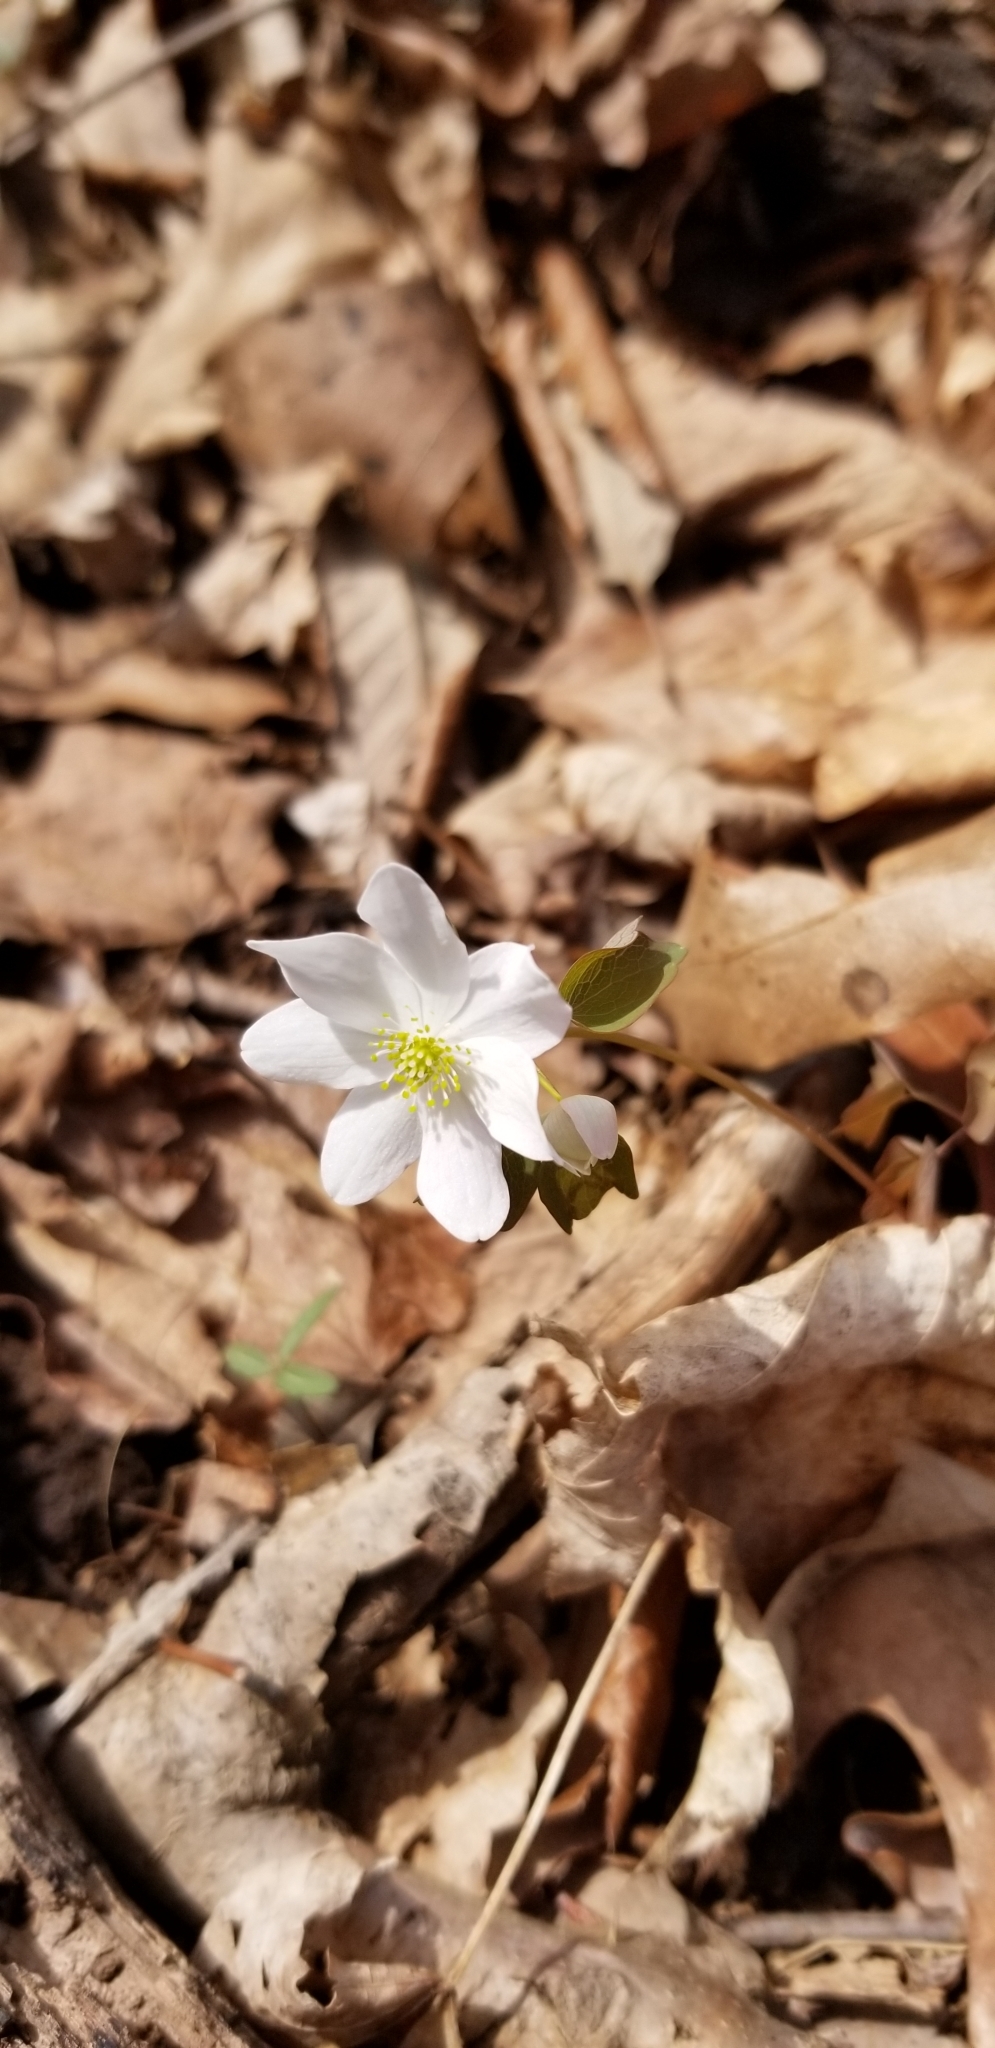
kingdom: Plantae
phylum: Tracheophyta
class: Magnoliopsida
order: Ranunculales
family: Ranunculaceae
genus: Thalictrum
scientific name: Thalictrum thalictroides
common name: Rue-anemone
